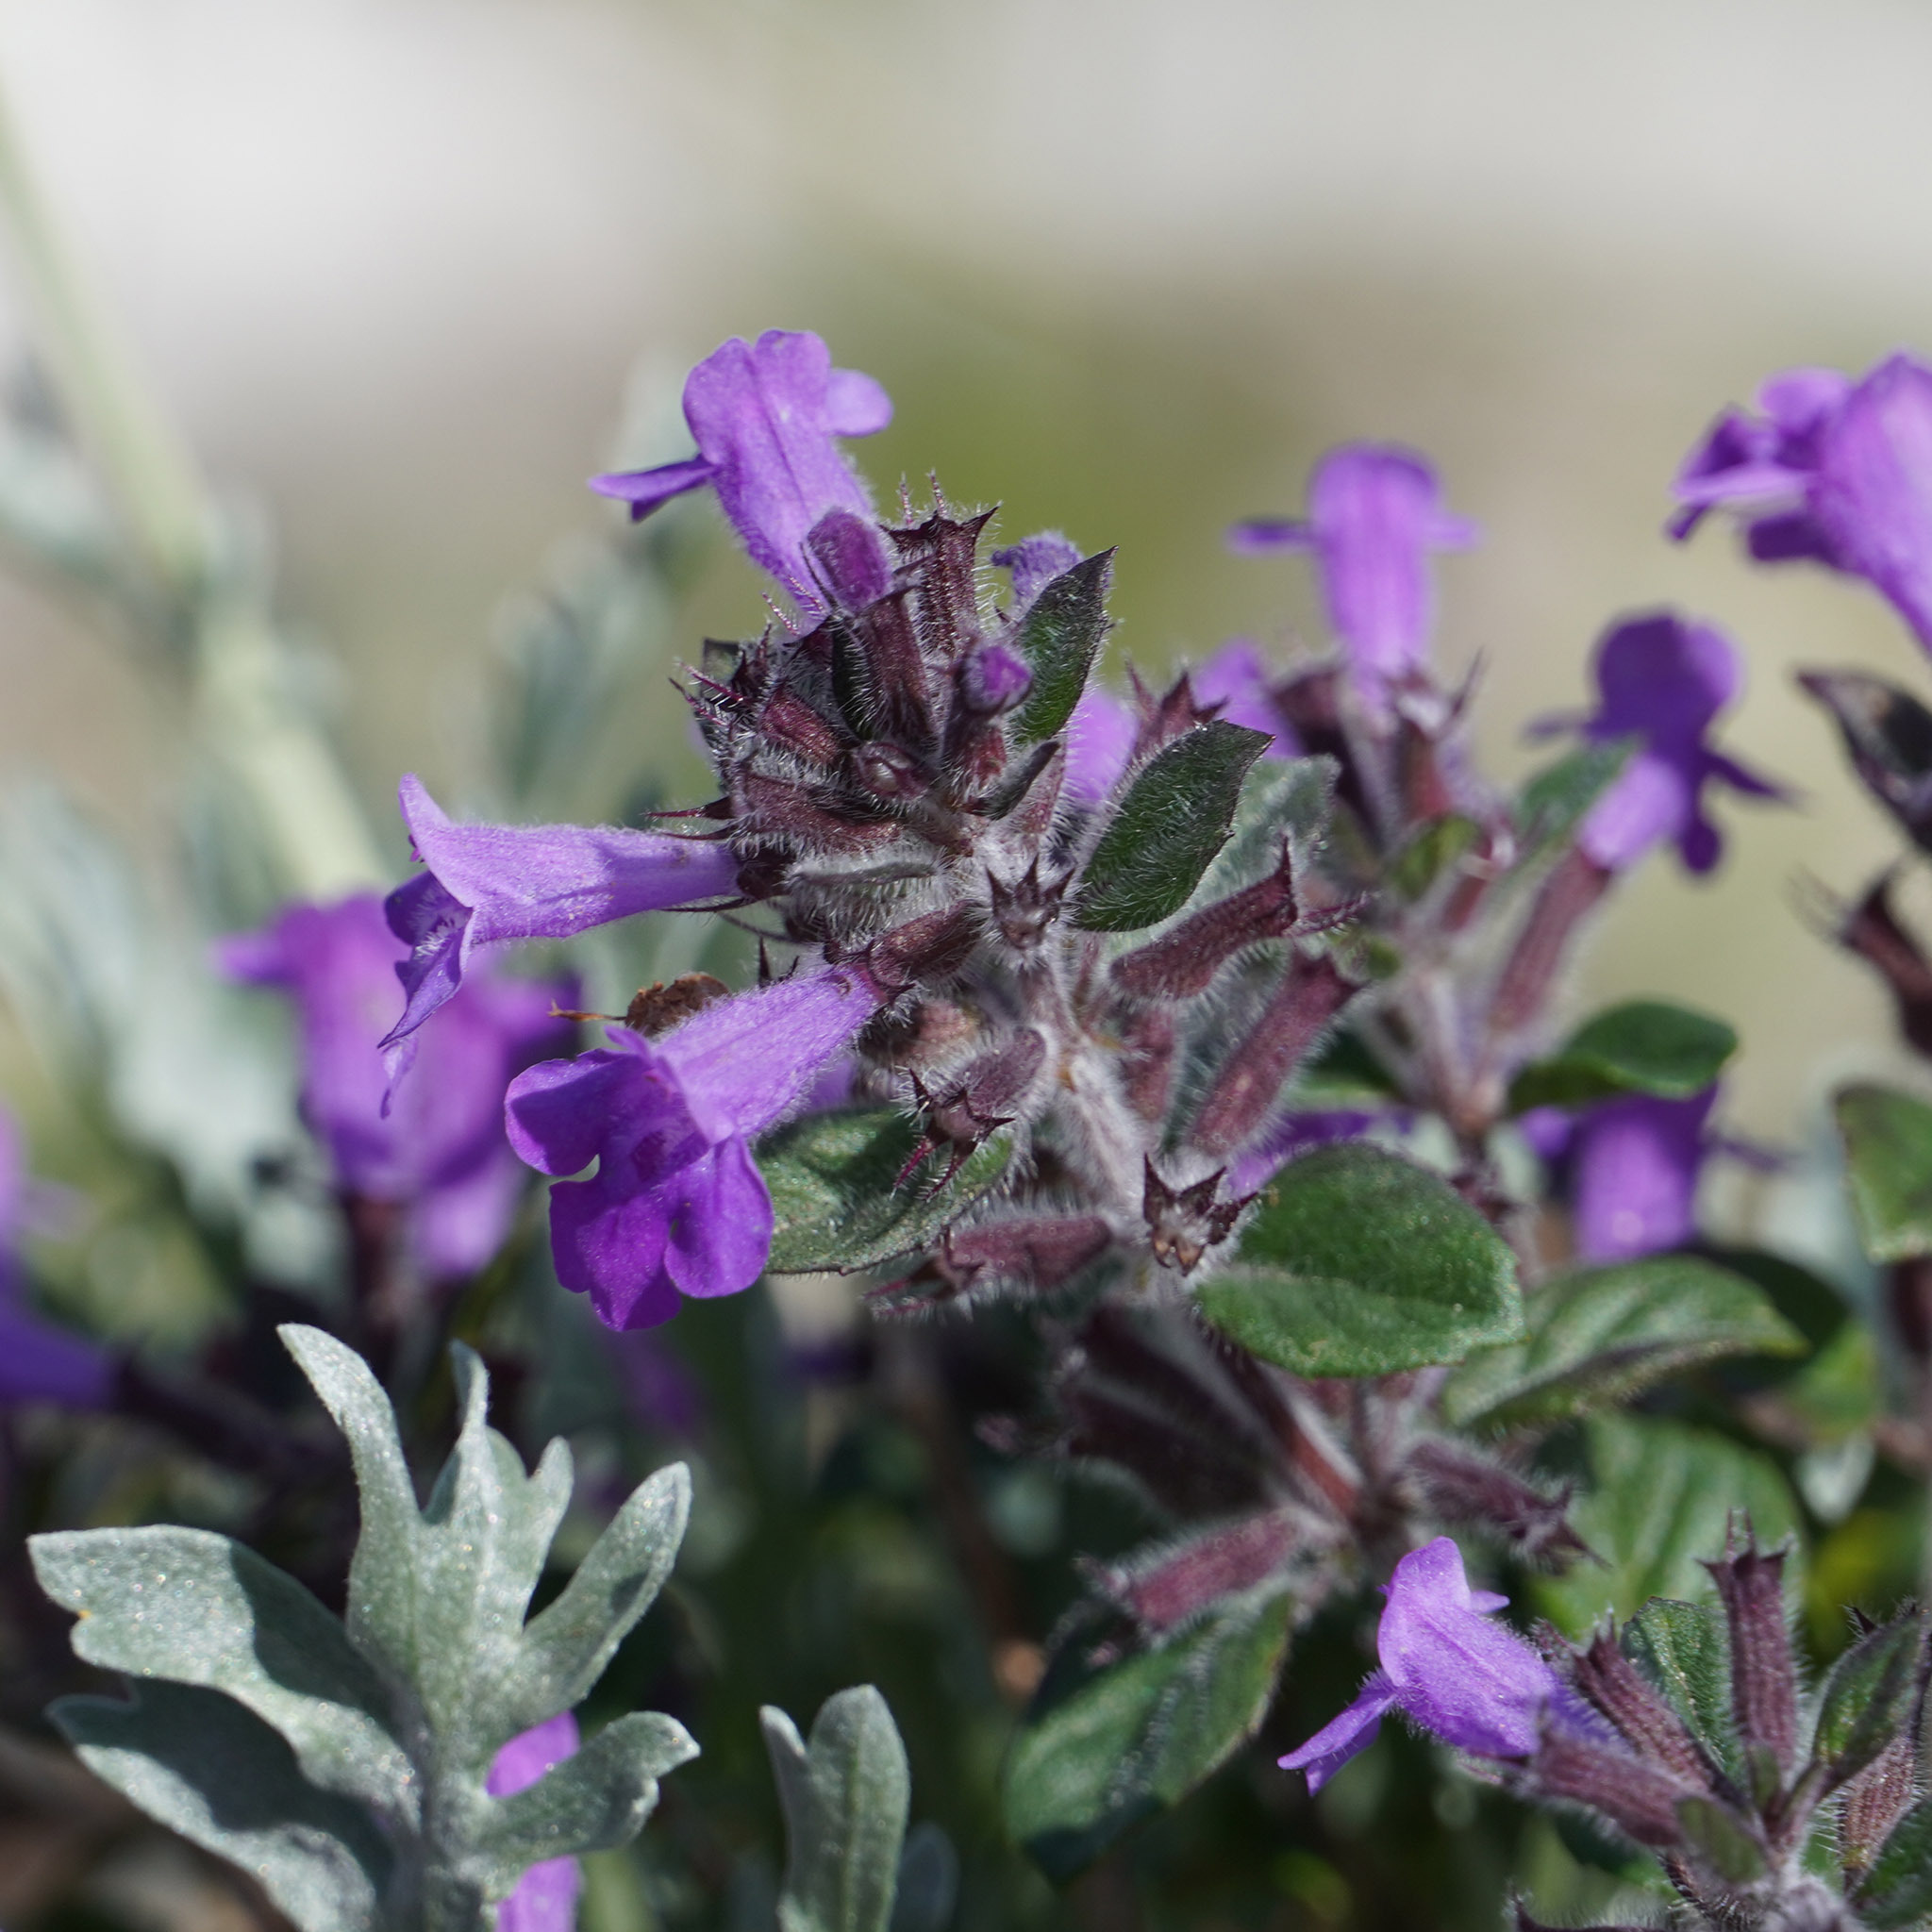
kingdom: Plantae
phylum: Tracheophyta
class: Magnoliopsida
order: Lamiales
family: Lamiaceae
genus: Clinopodium
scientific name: Clinopodium alpinum
